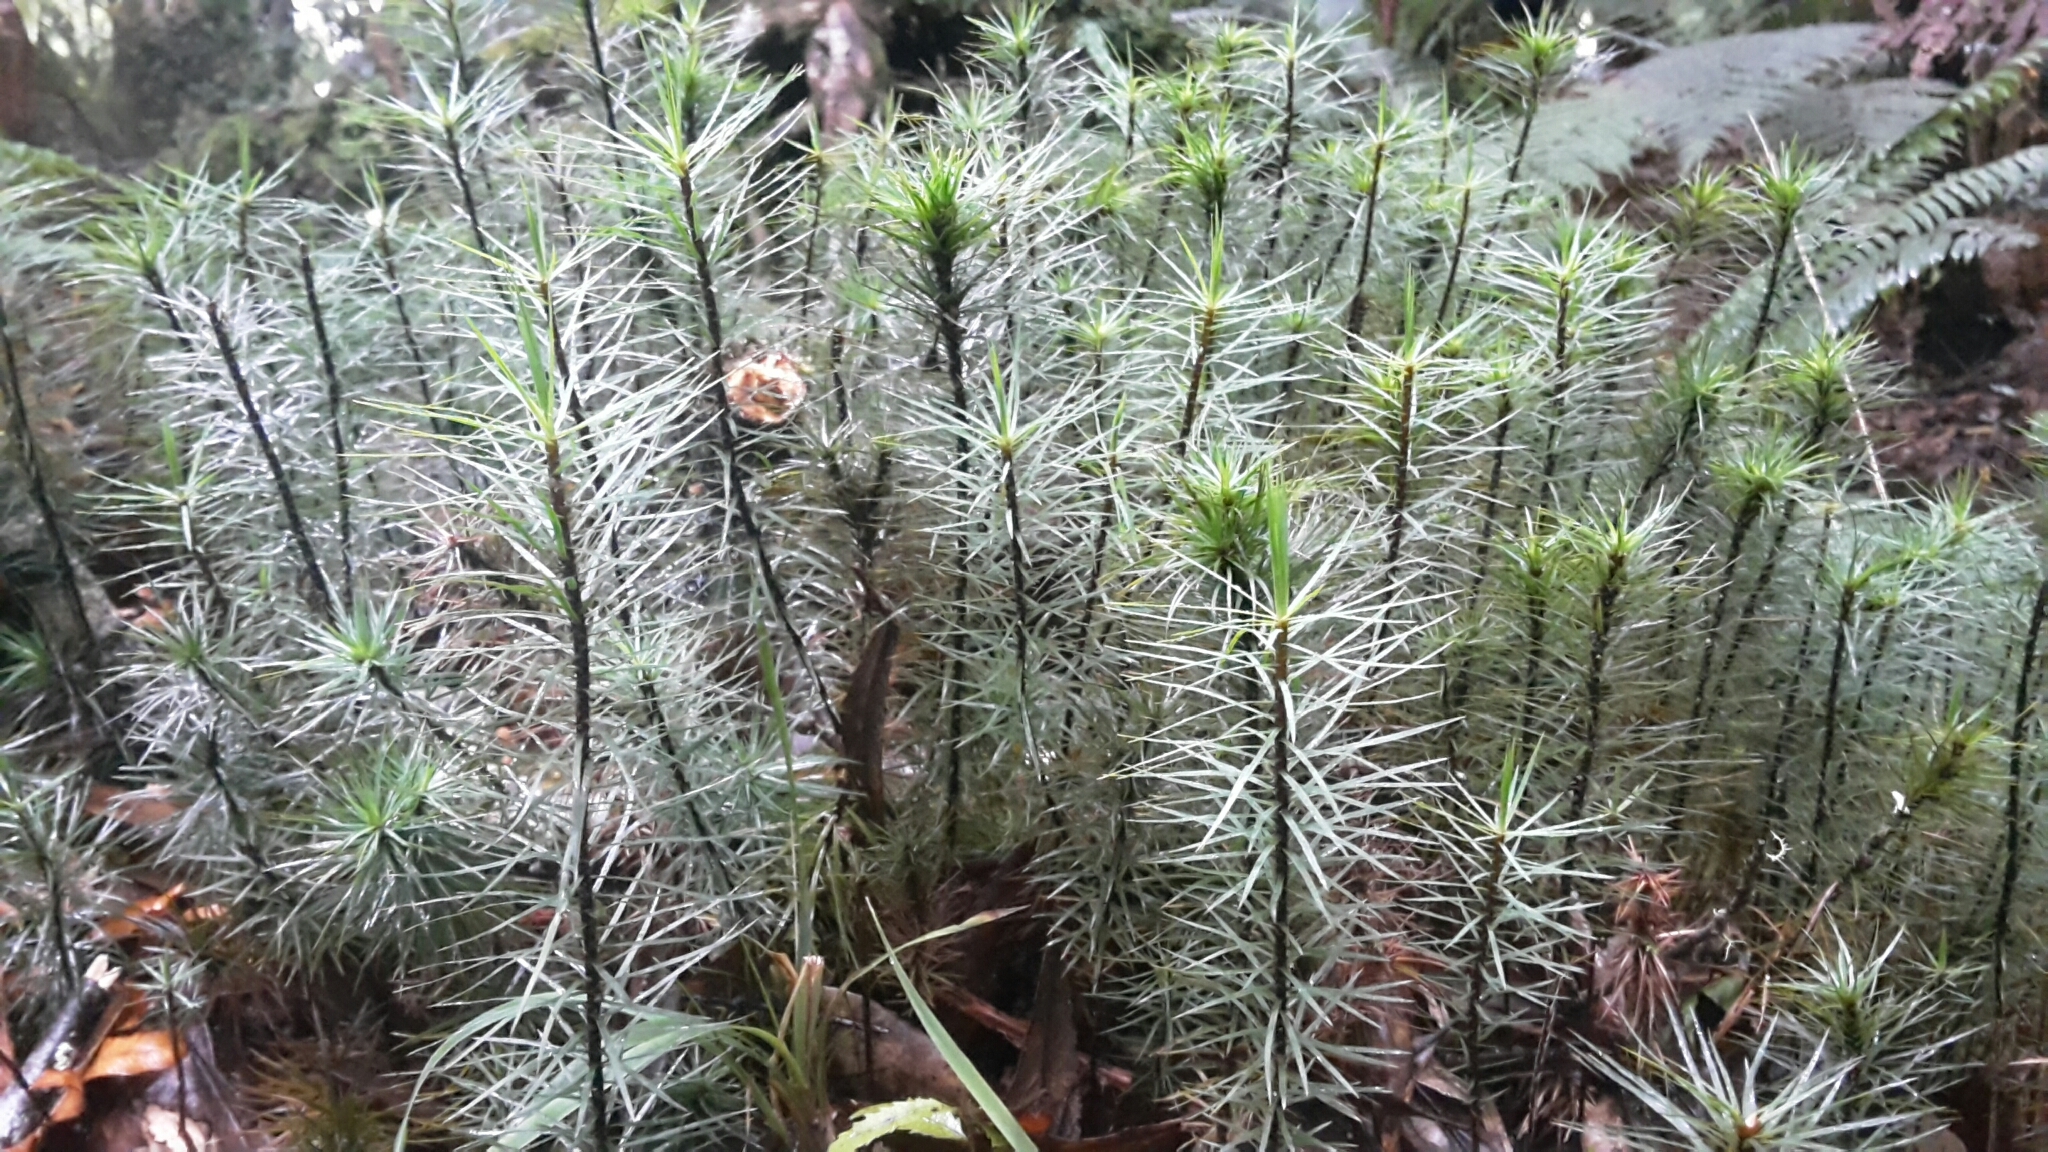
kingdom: Plantae
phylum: Bryophyta
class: Polytrichopsida
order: Polytrichales
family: Polytrichaceae
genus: Dawsonia
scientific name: Dawsonia superba
